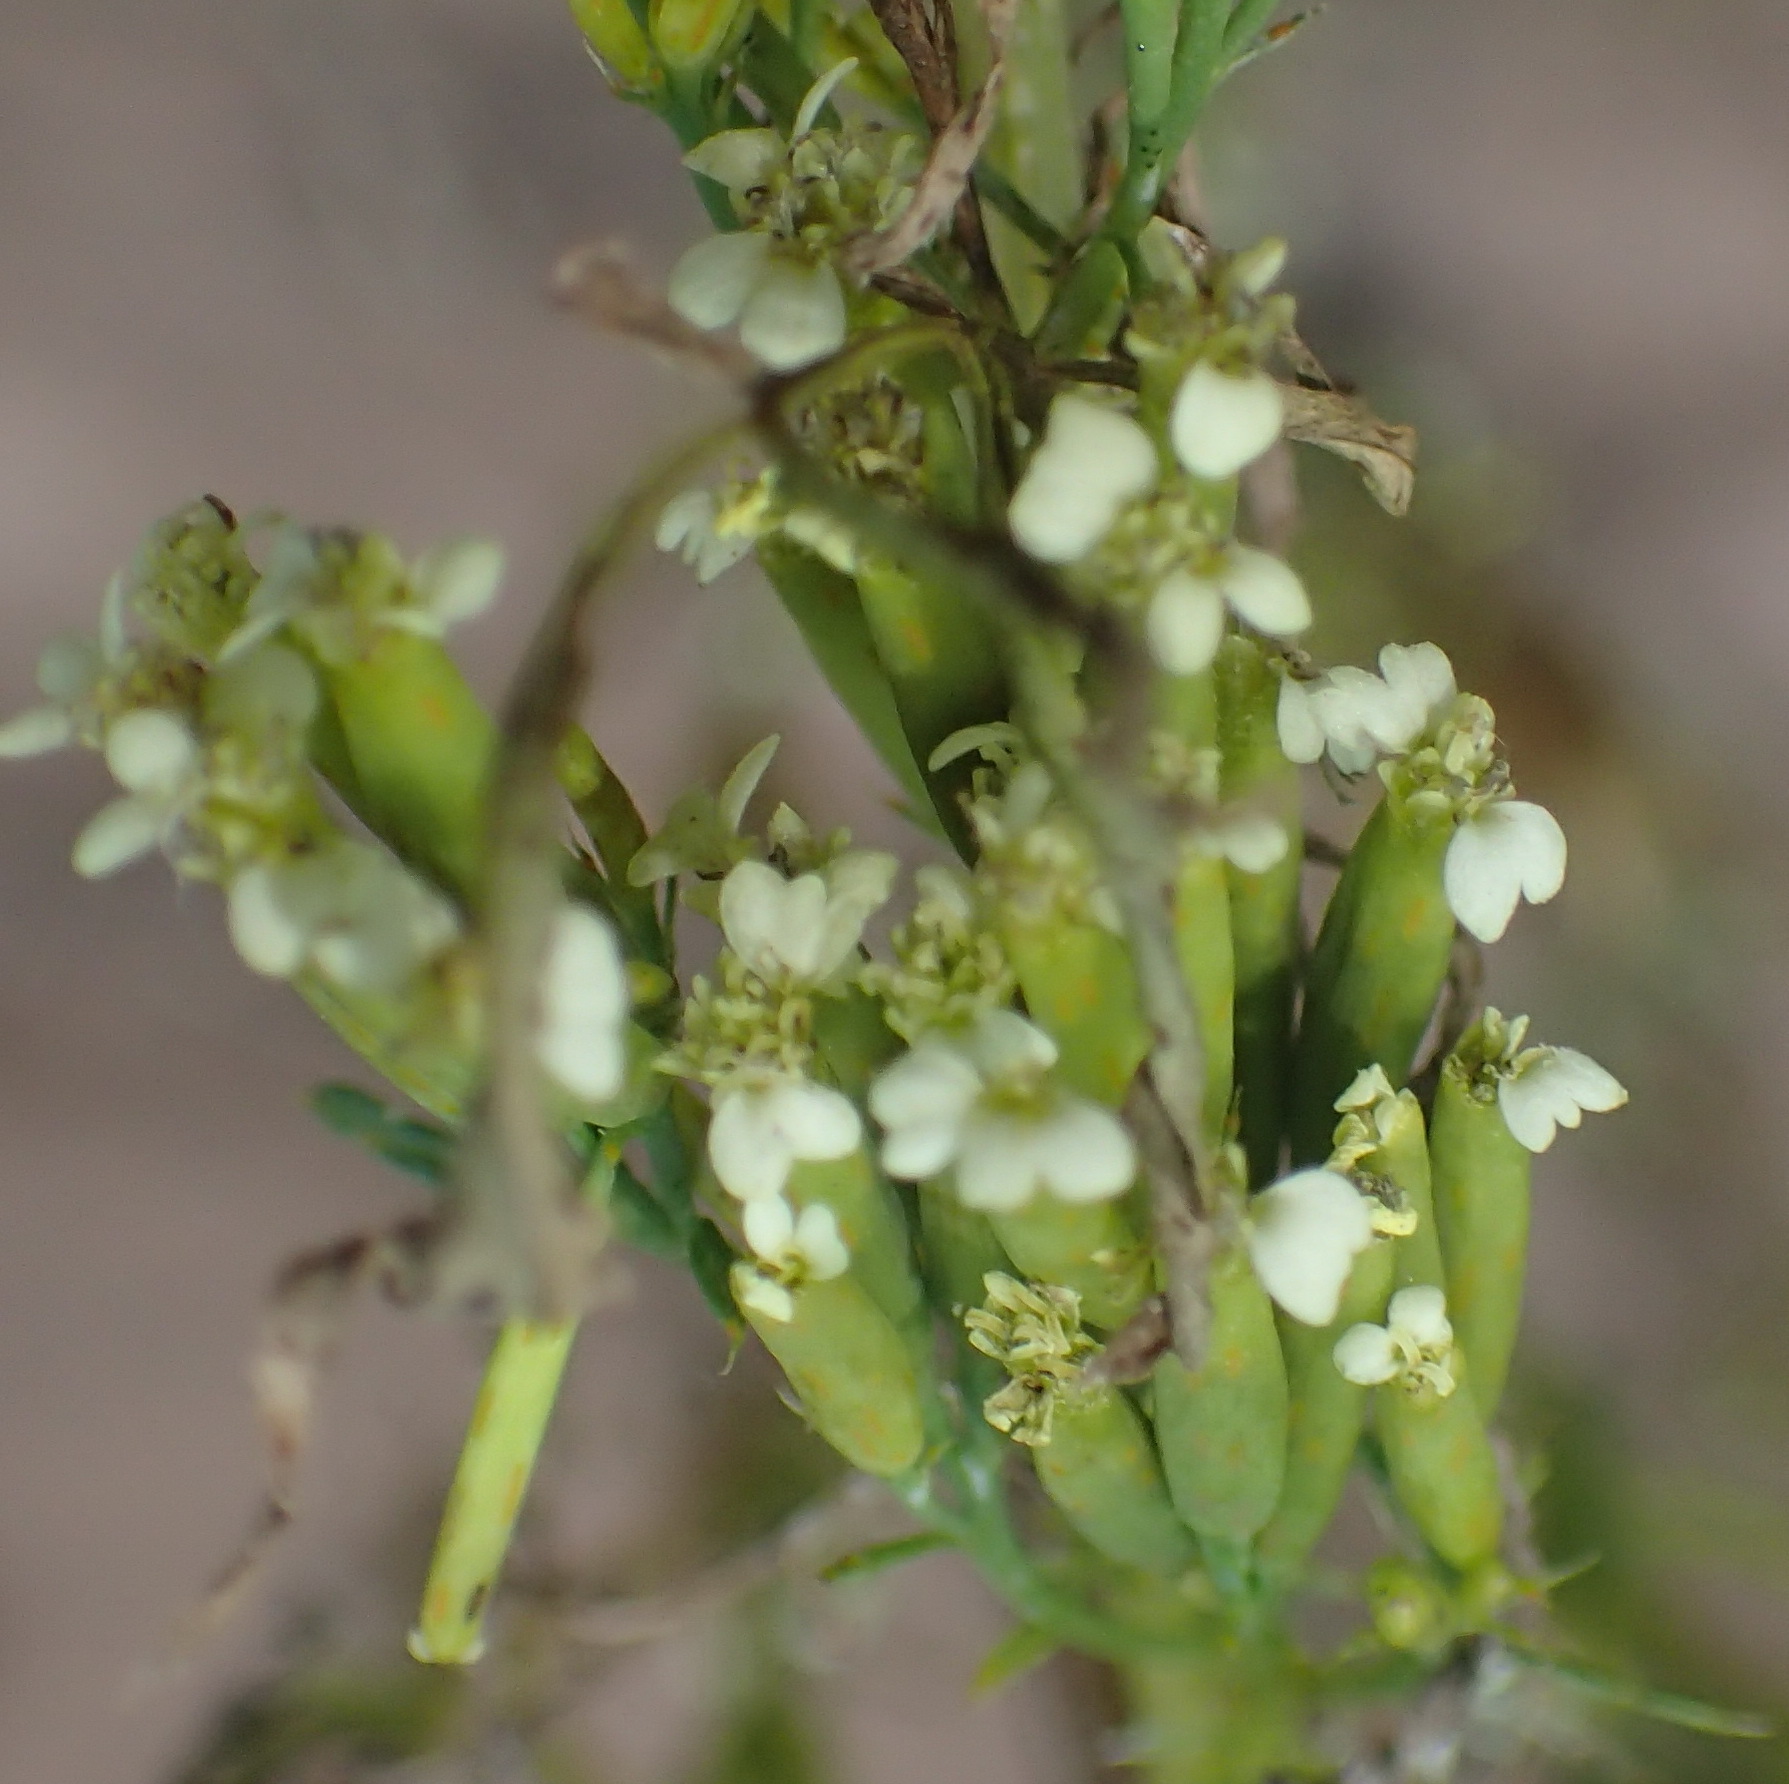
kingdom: Plantae
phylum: Tracheophyta
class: Magnoliopsida
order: Asterales
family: Asteraceae
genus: Tagetes
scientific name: Tagetes minuta
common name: Muster john henry
